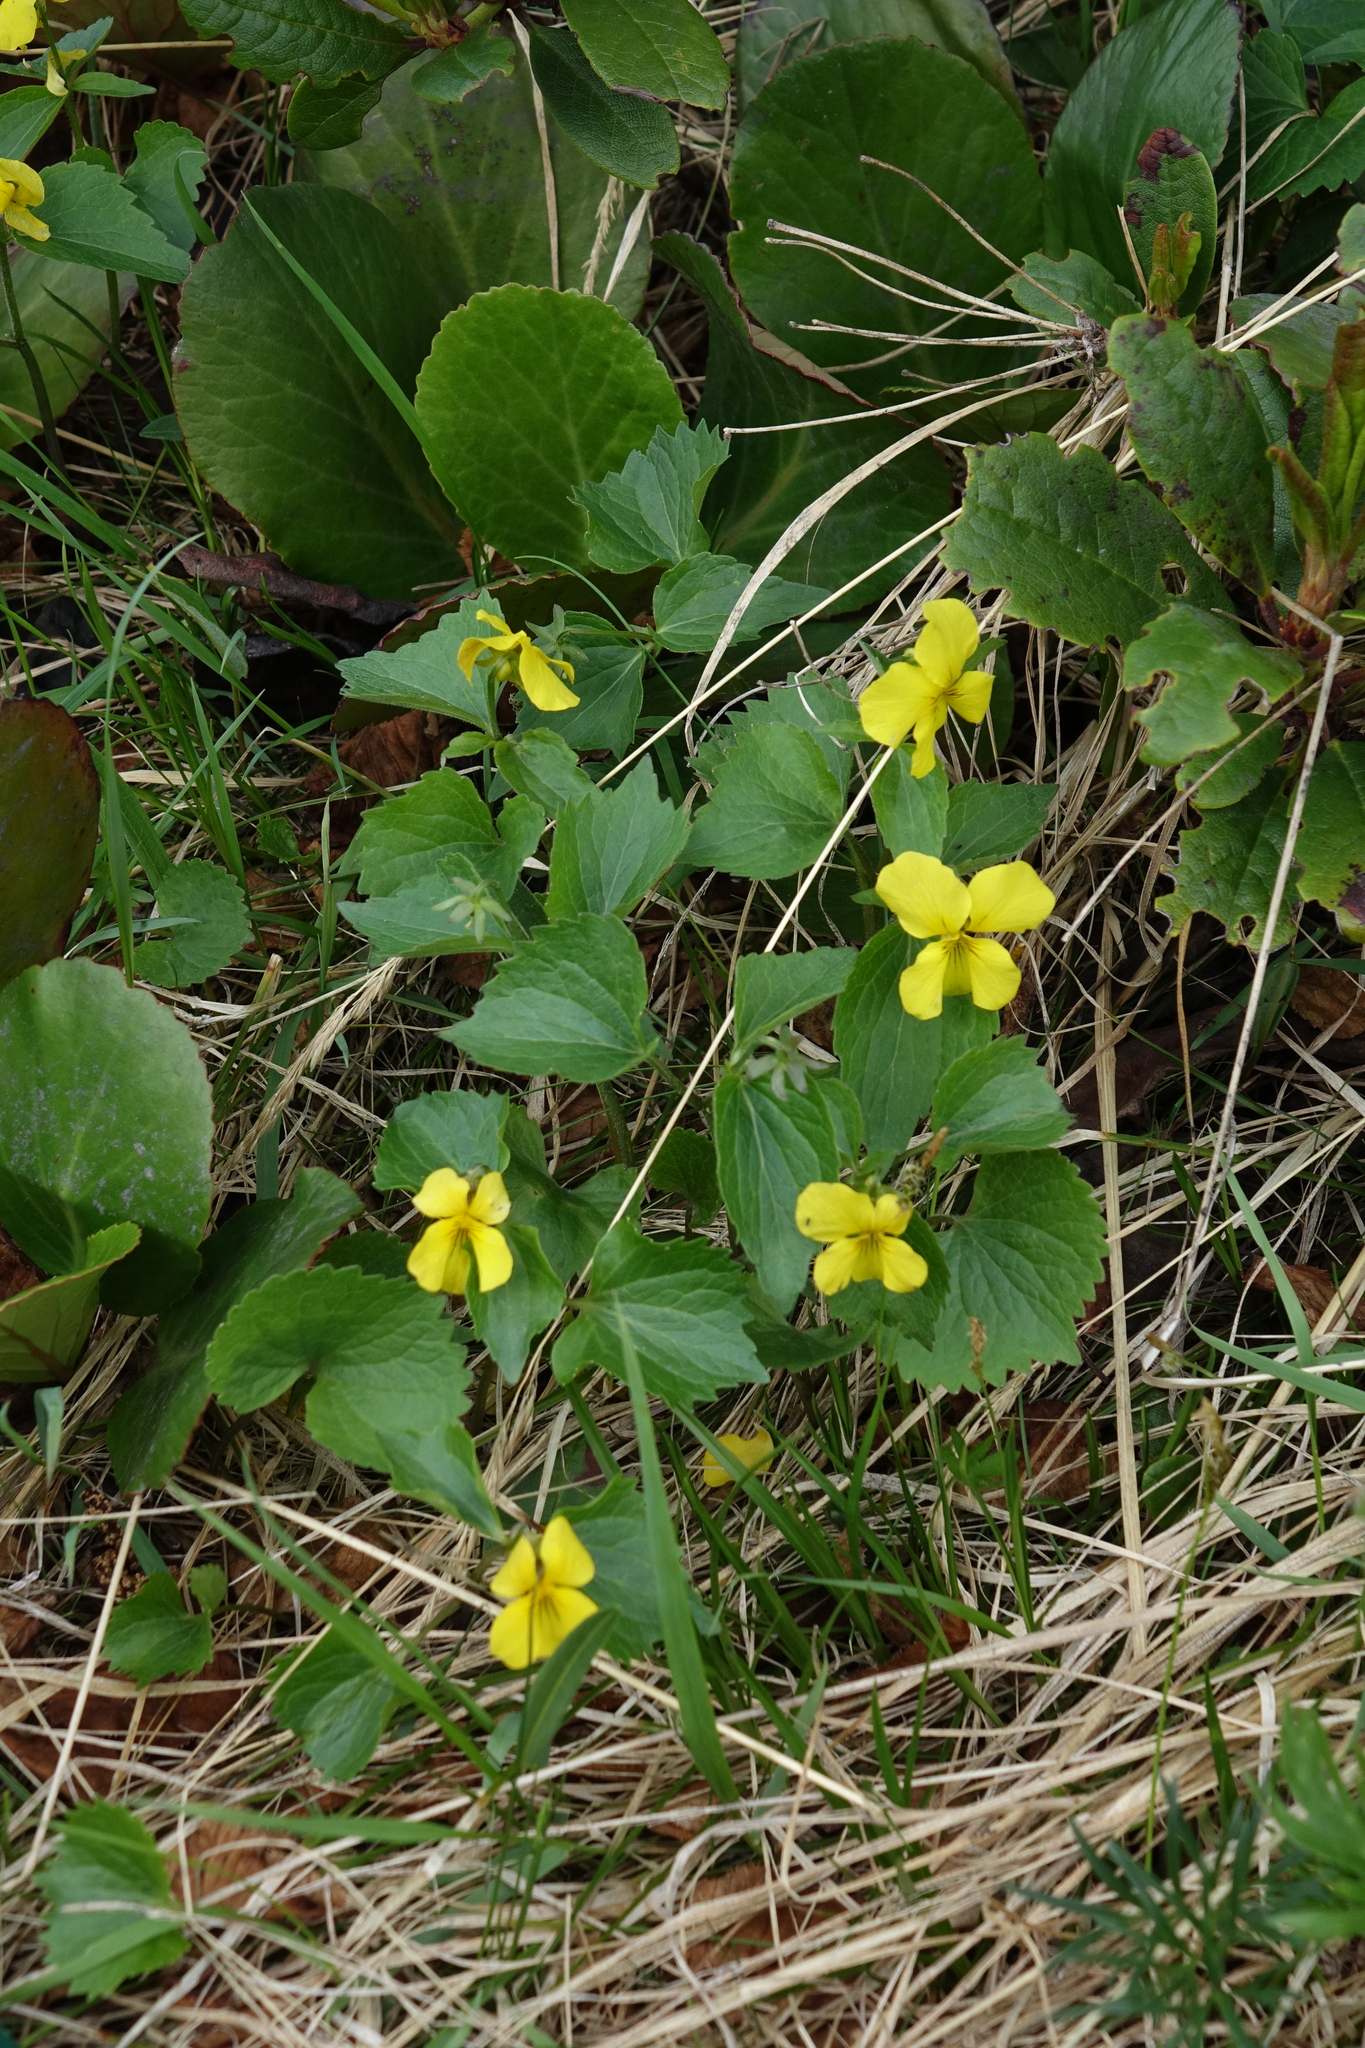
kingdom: Plantae
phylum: Tracheophyta
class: Magnoliopsida
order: Malpighiales
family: Violaceae
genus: Viola
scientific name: Viola uniflora
